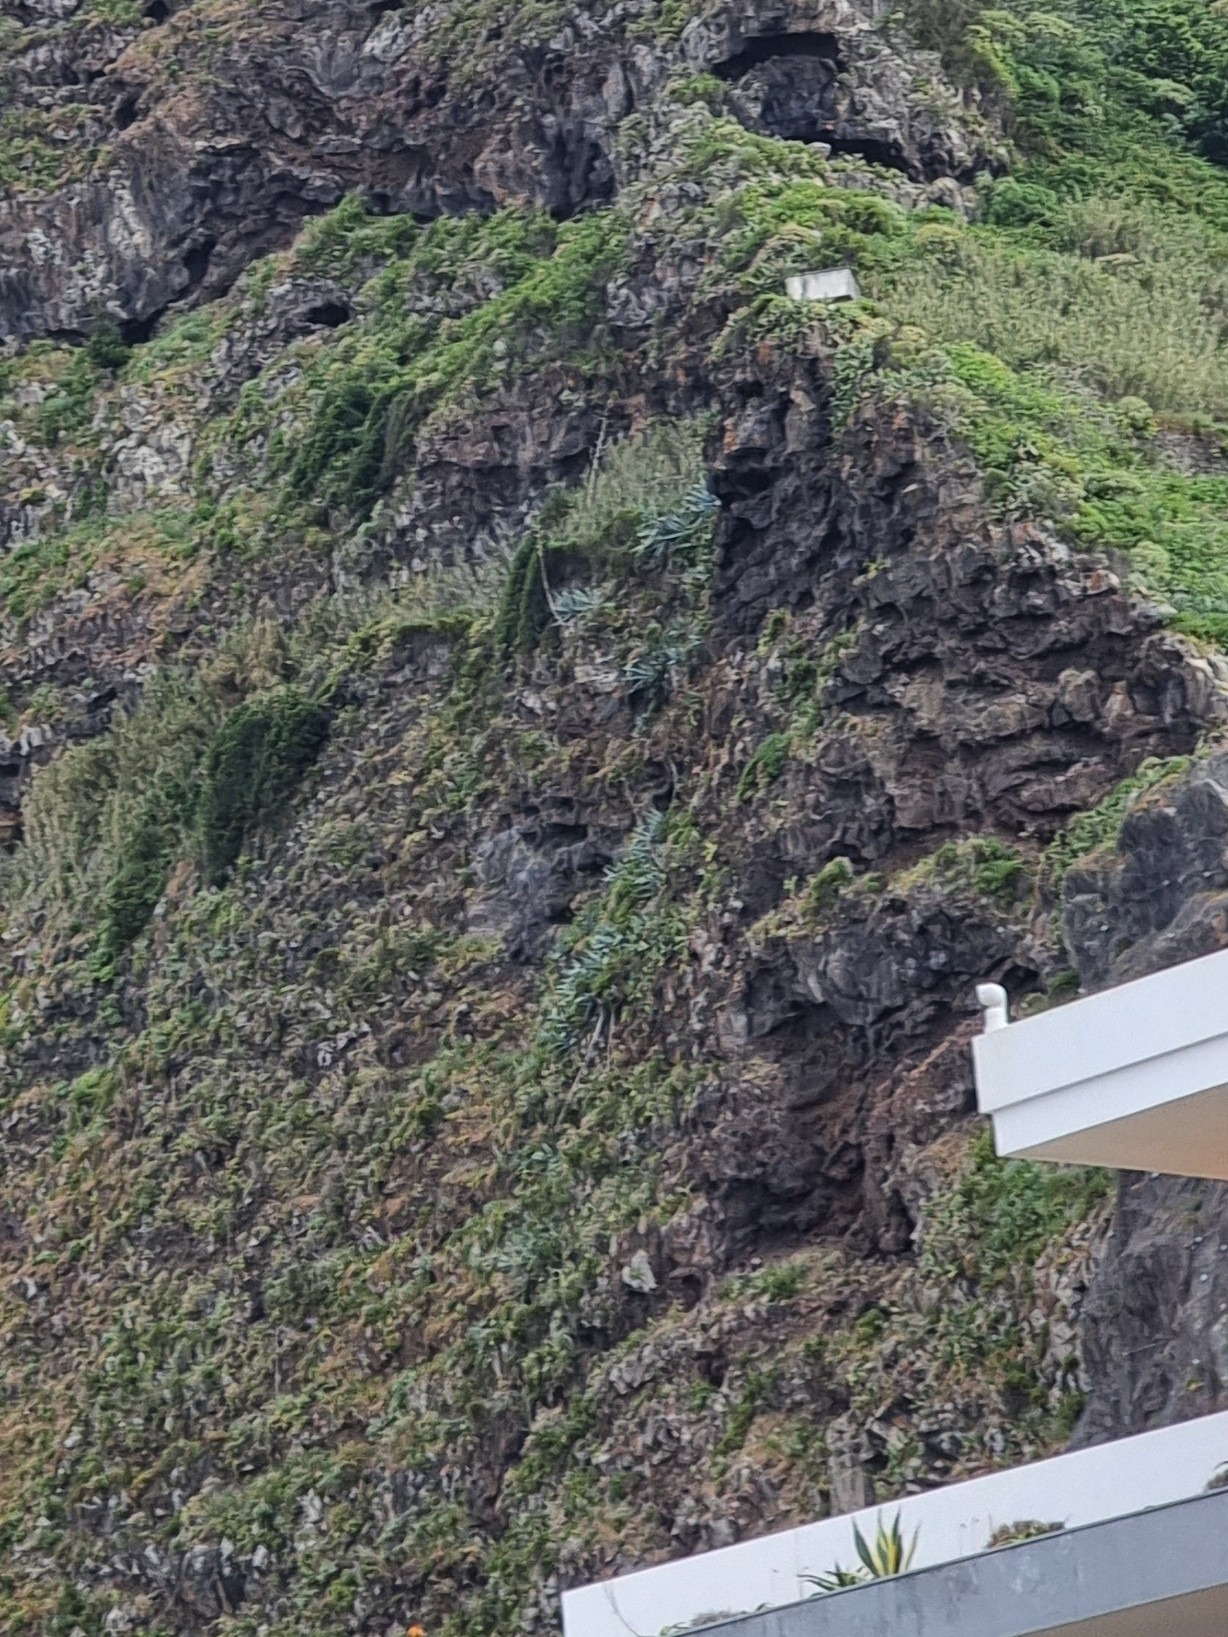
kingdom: Plantae
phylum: Tracheophyta
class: Liliopsida
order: Asparagales
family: Asparagaceae
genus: Agave
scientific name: Agave americana
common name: Centuryplant
